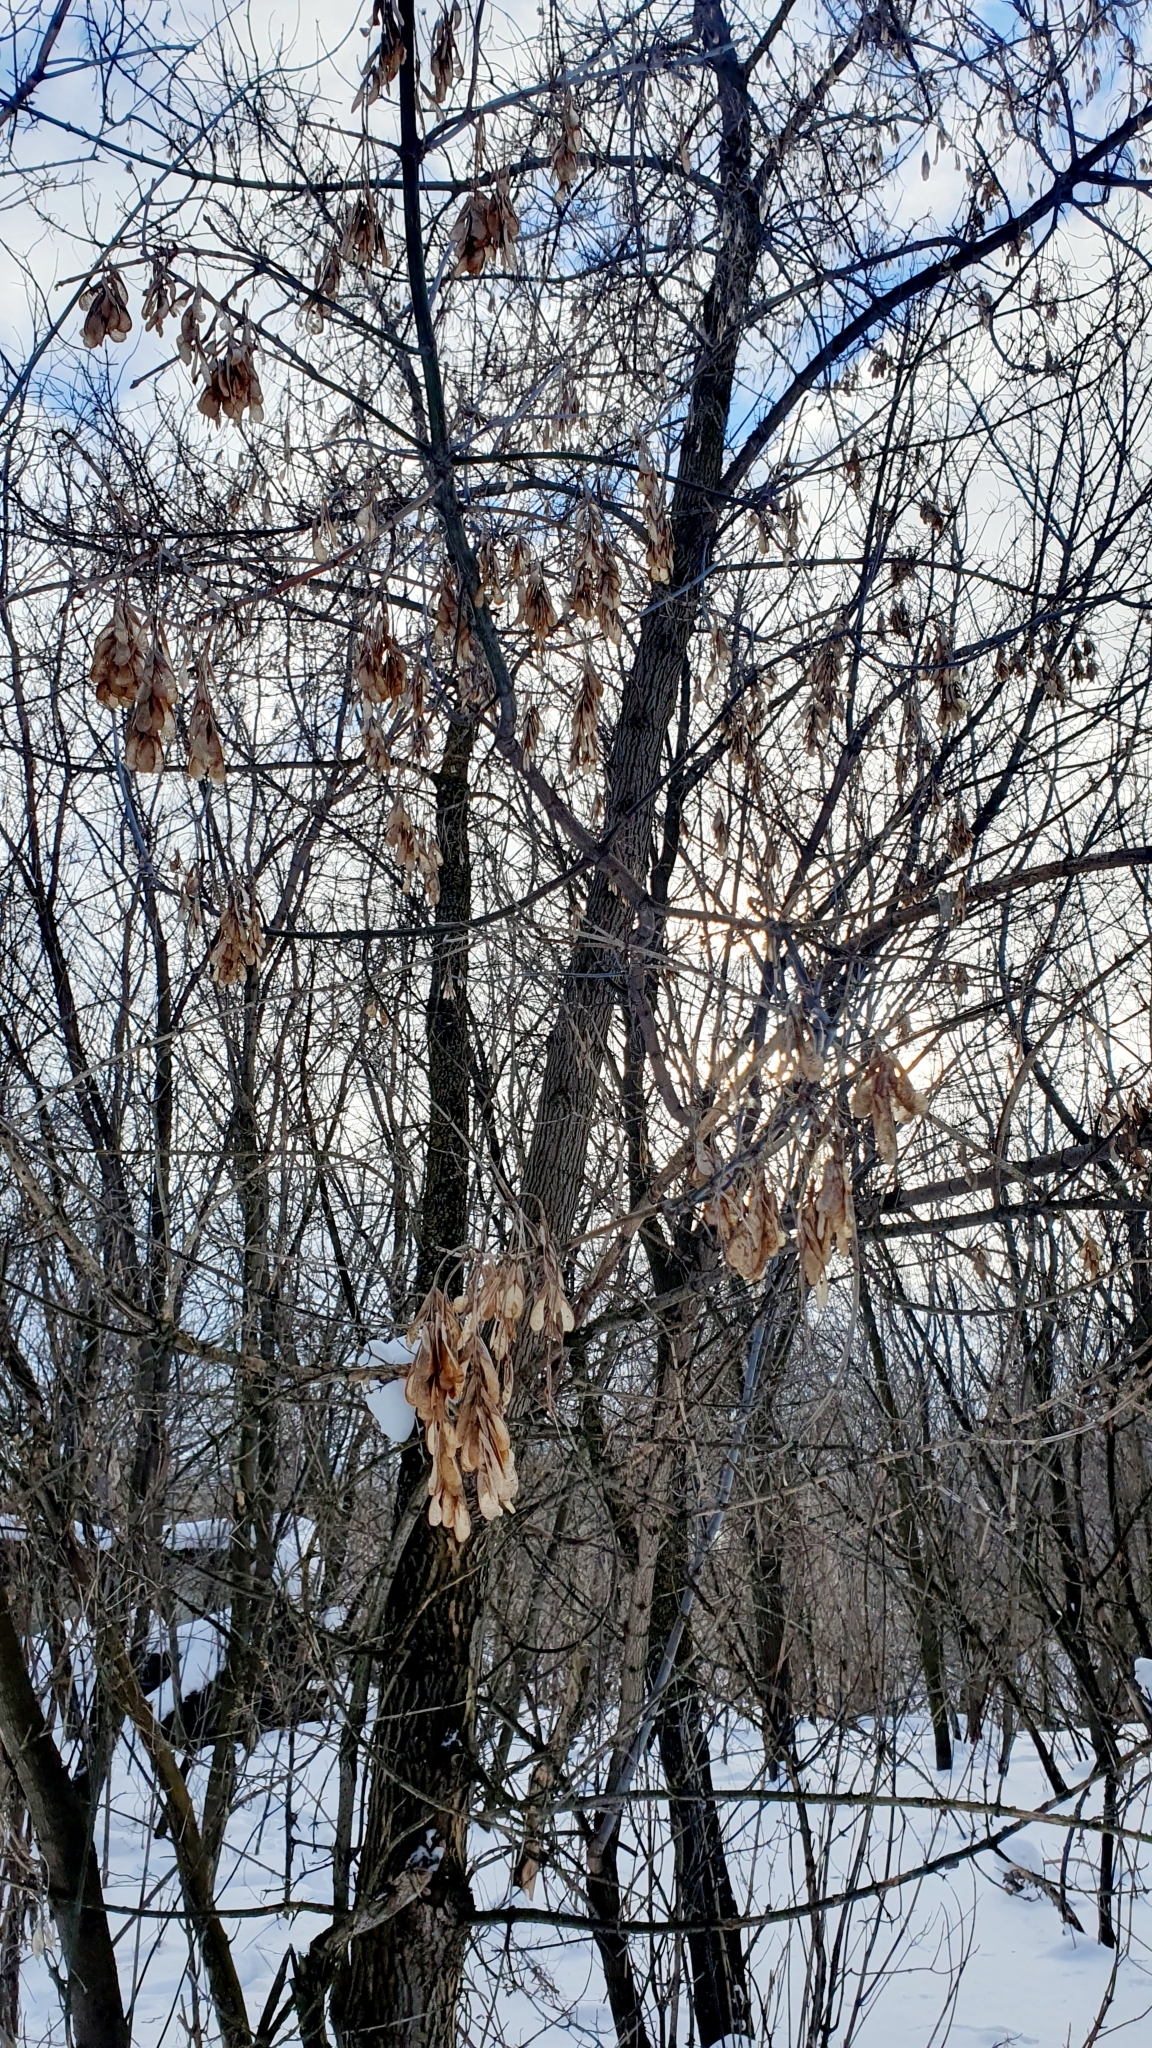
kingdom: Plantae
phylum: Tracheophyta
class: Magnoliopsida
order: Sapindales
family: Sapindaceae
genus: Acer
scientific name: Acer negundo
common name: Ashleaf maple
